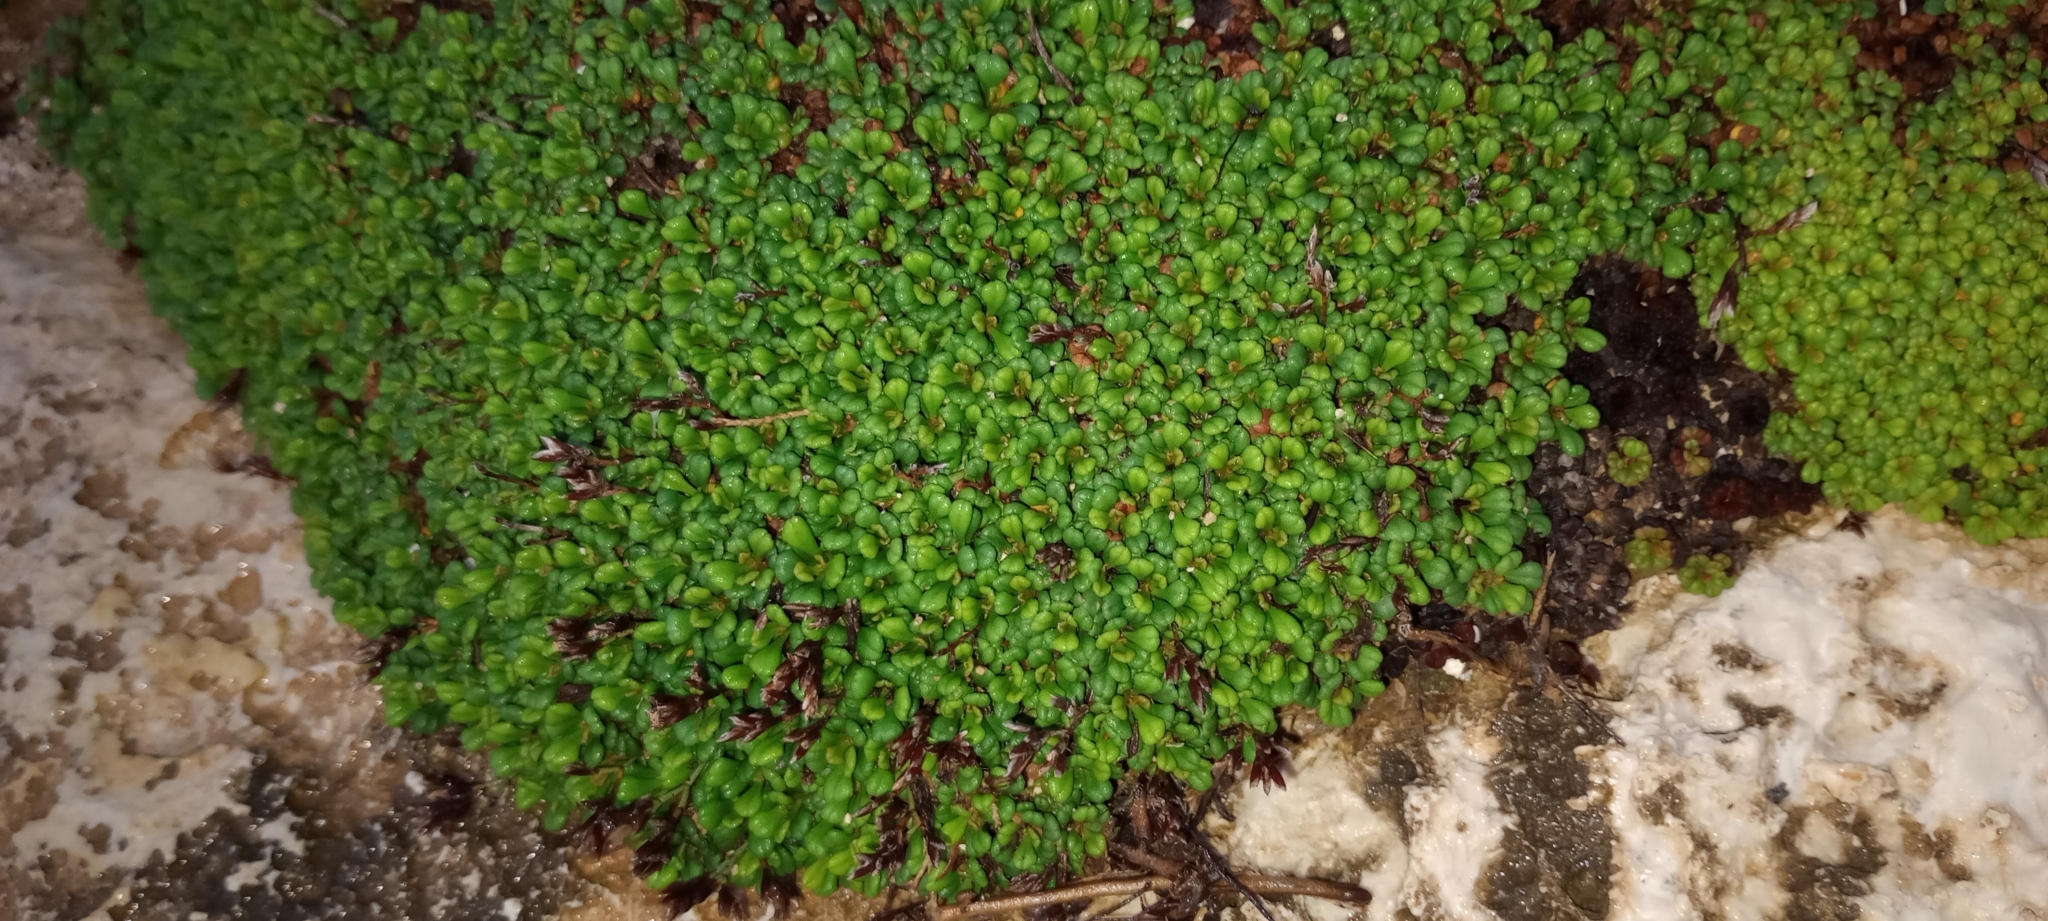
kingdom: Plantae
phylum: Tracheophyta
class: Magnoliopsida
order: Caryophyllales
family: Plumbaginaceae
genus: Limonium
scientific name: Limonium minutum
